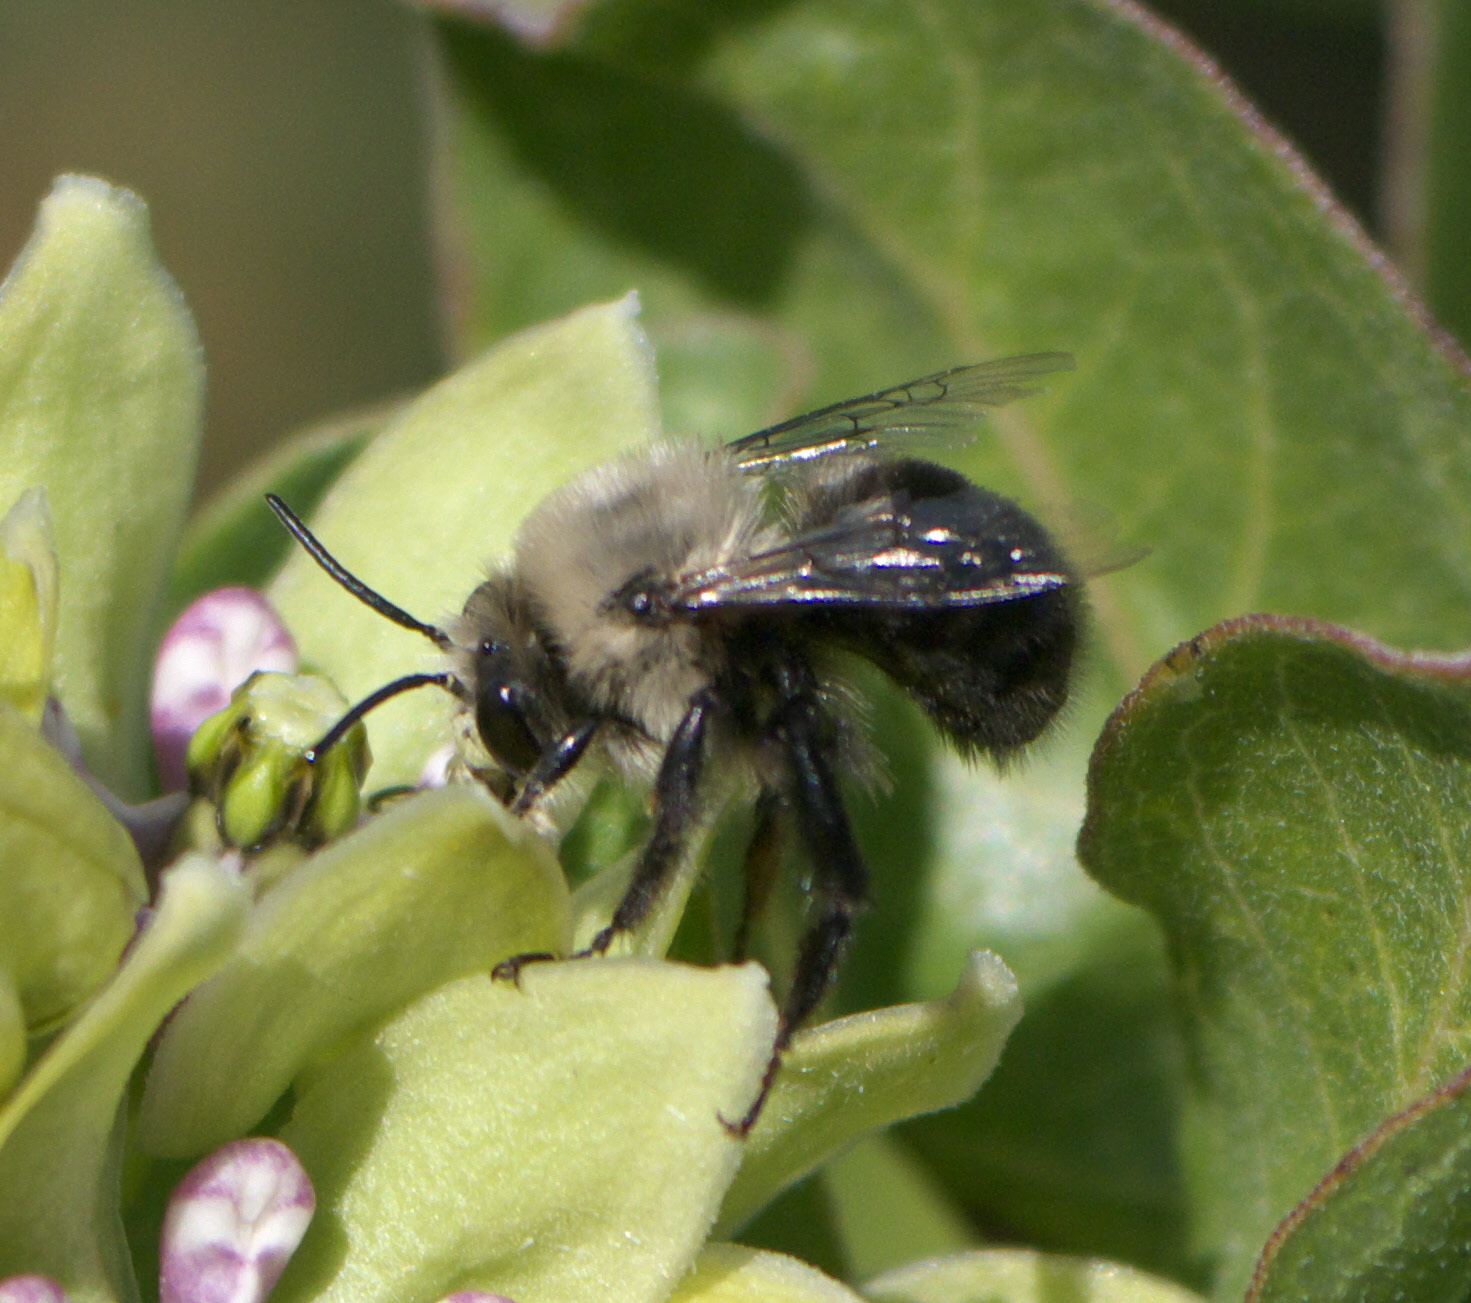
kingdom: Animalia
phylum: Arthropoda
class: Insecta
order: Hymenoptera
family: Apidae
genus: Anthophora
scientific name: Anthophora abrupta
